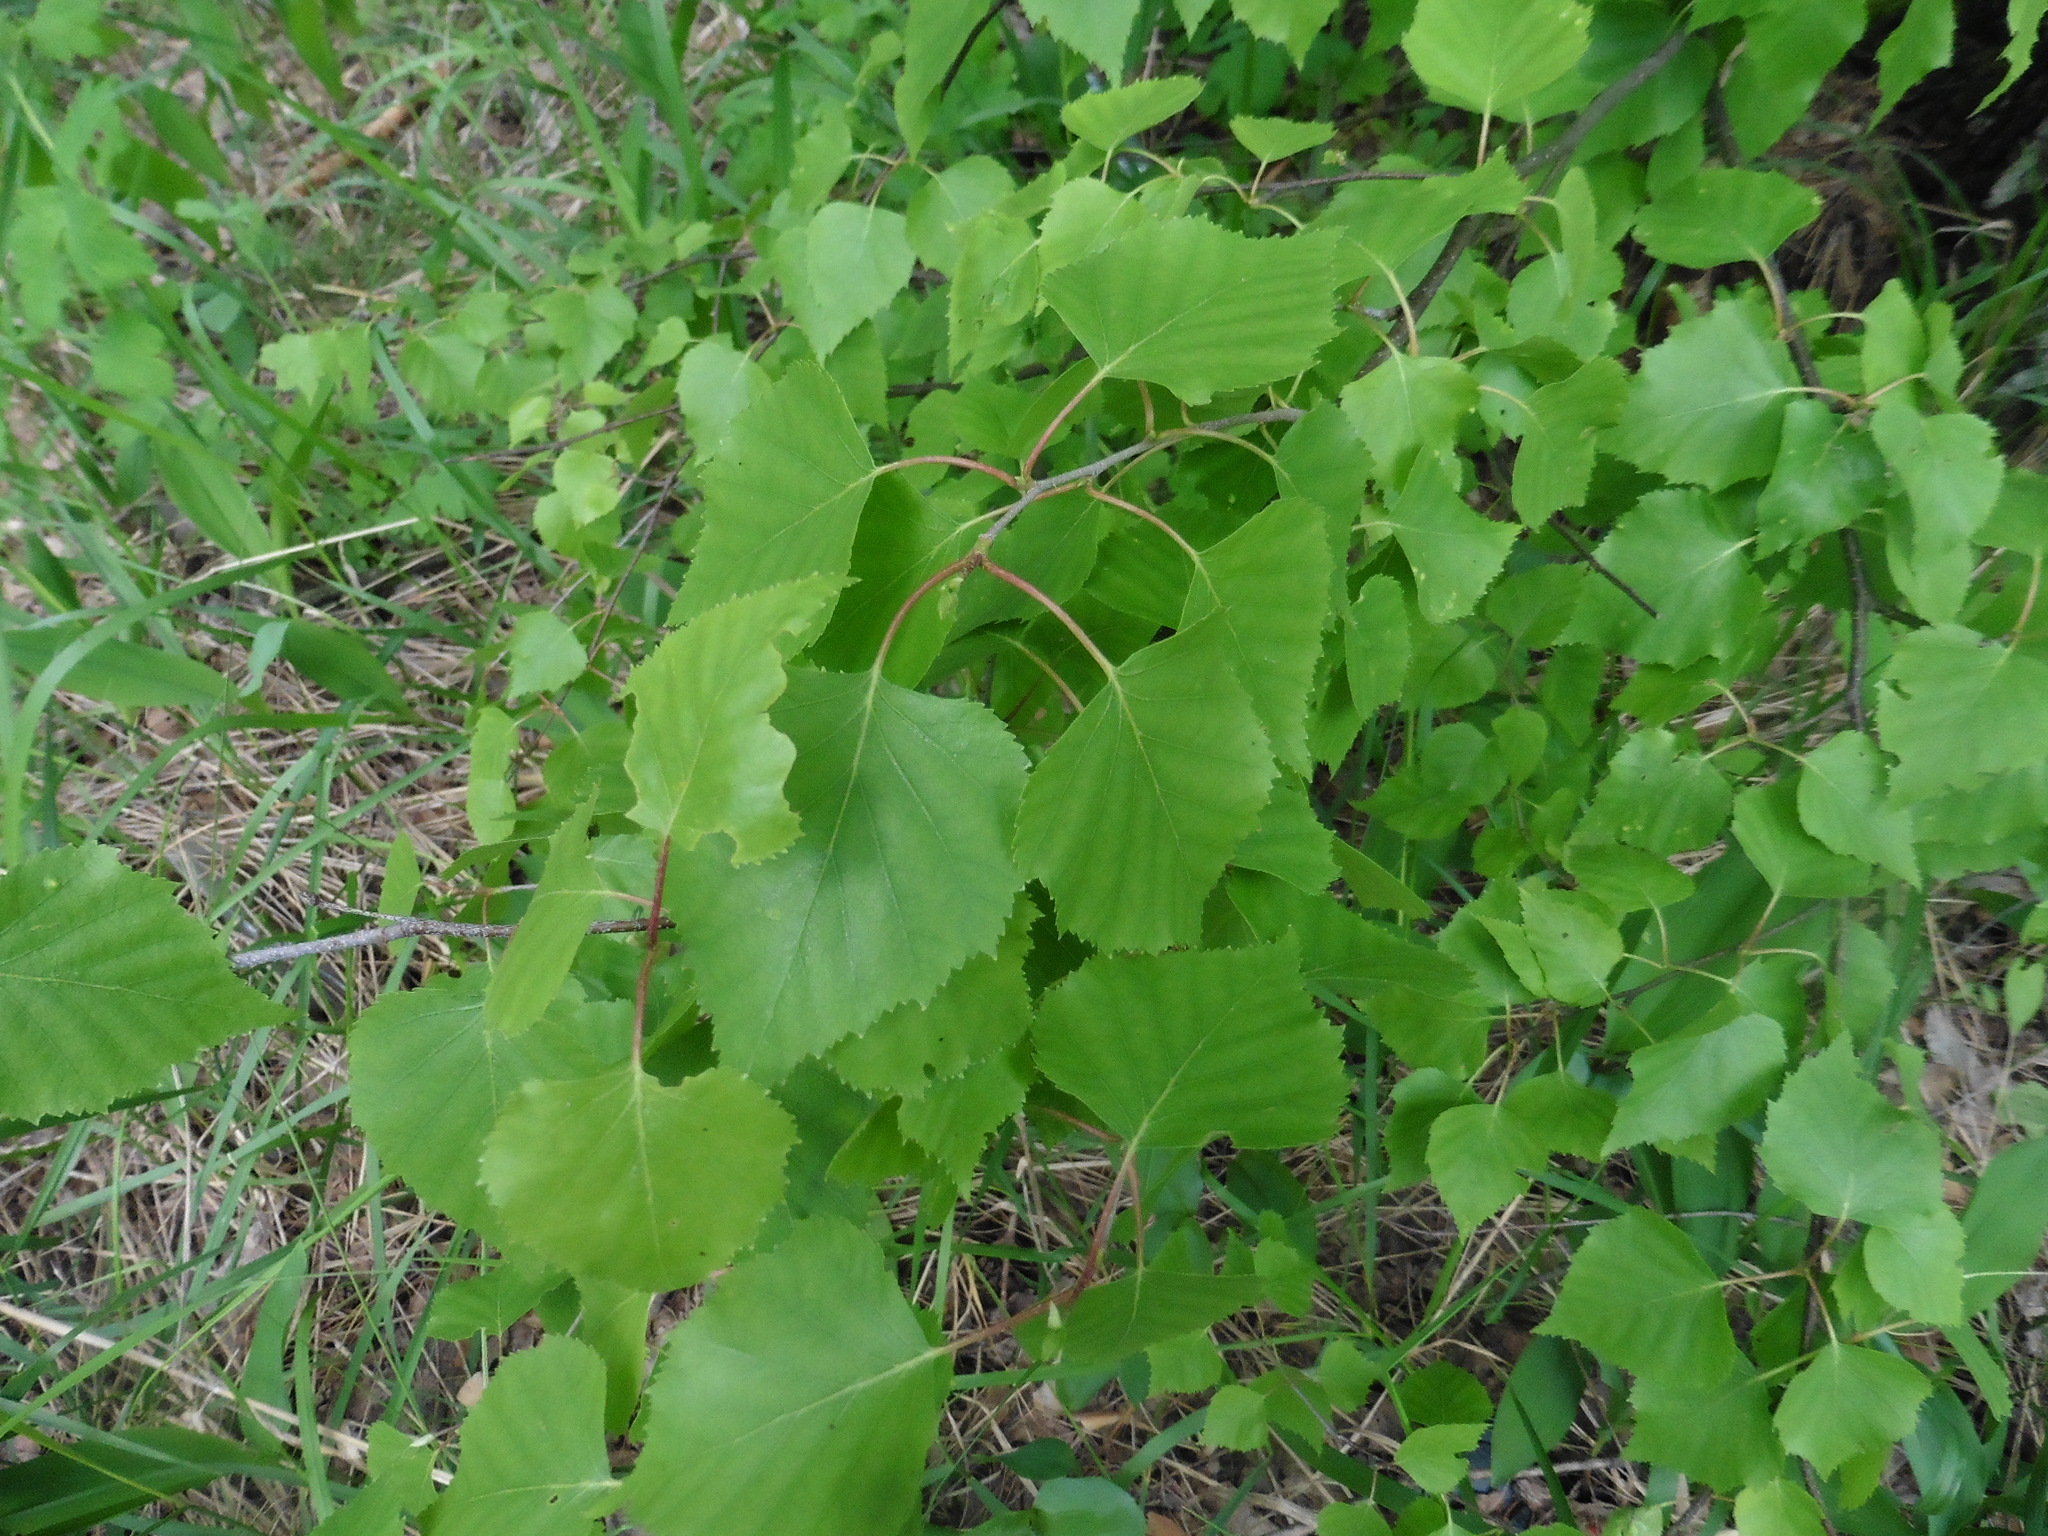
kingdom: Plantae
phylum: Tracheophyta
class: Magnoliopsida
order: Fagales
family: Betulaceae
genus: Betula
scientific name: Betula pendula
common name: Silver birch
